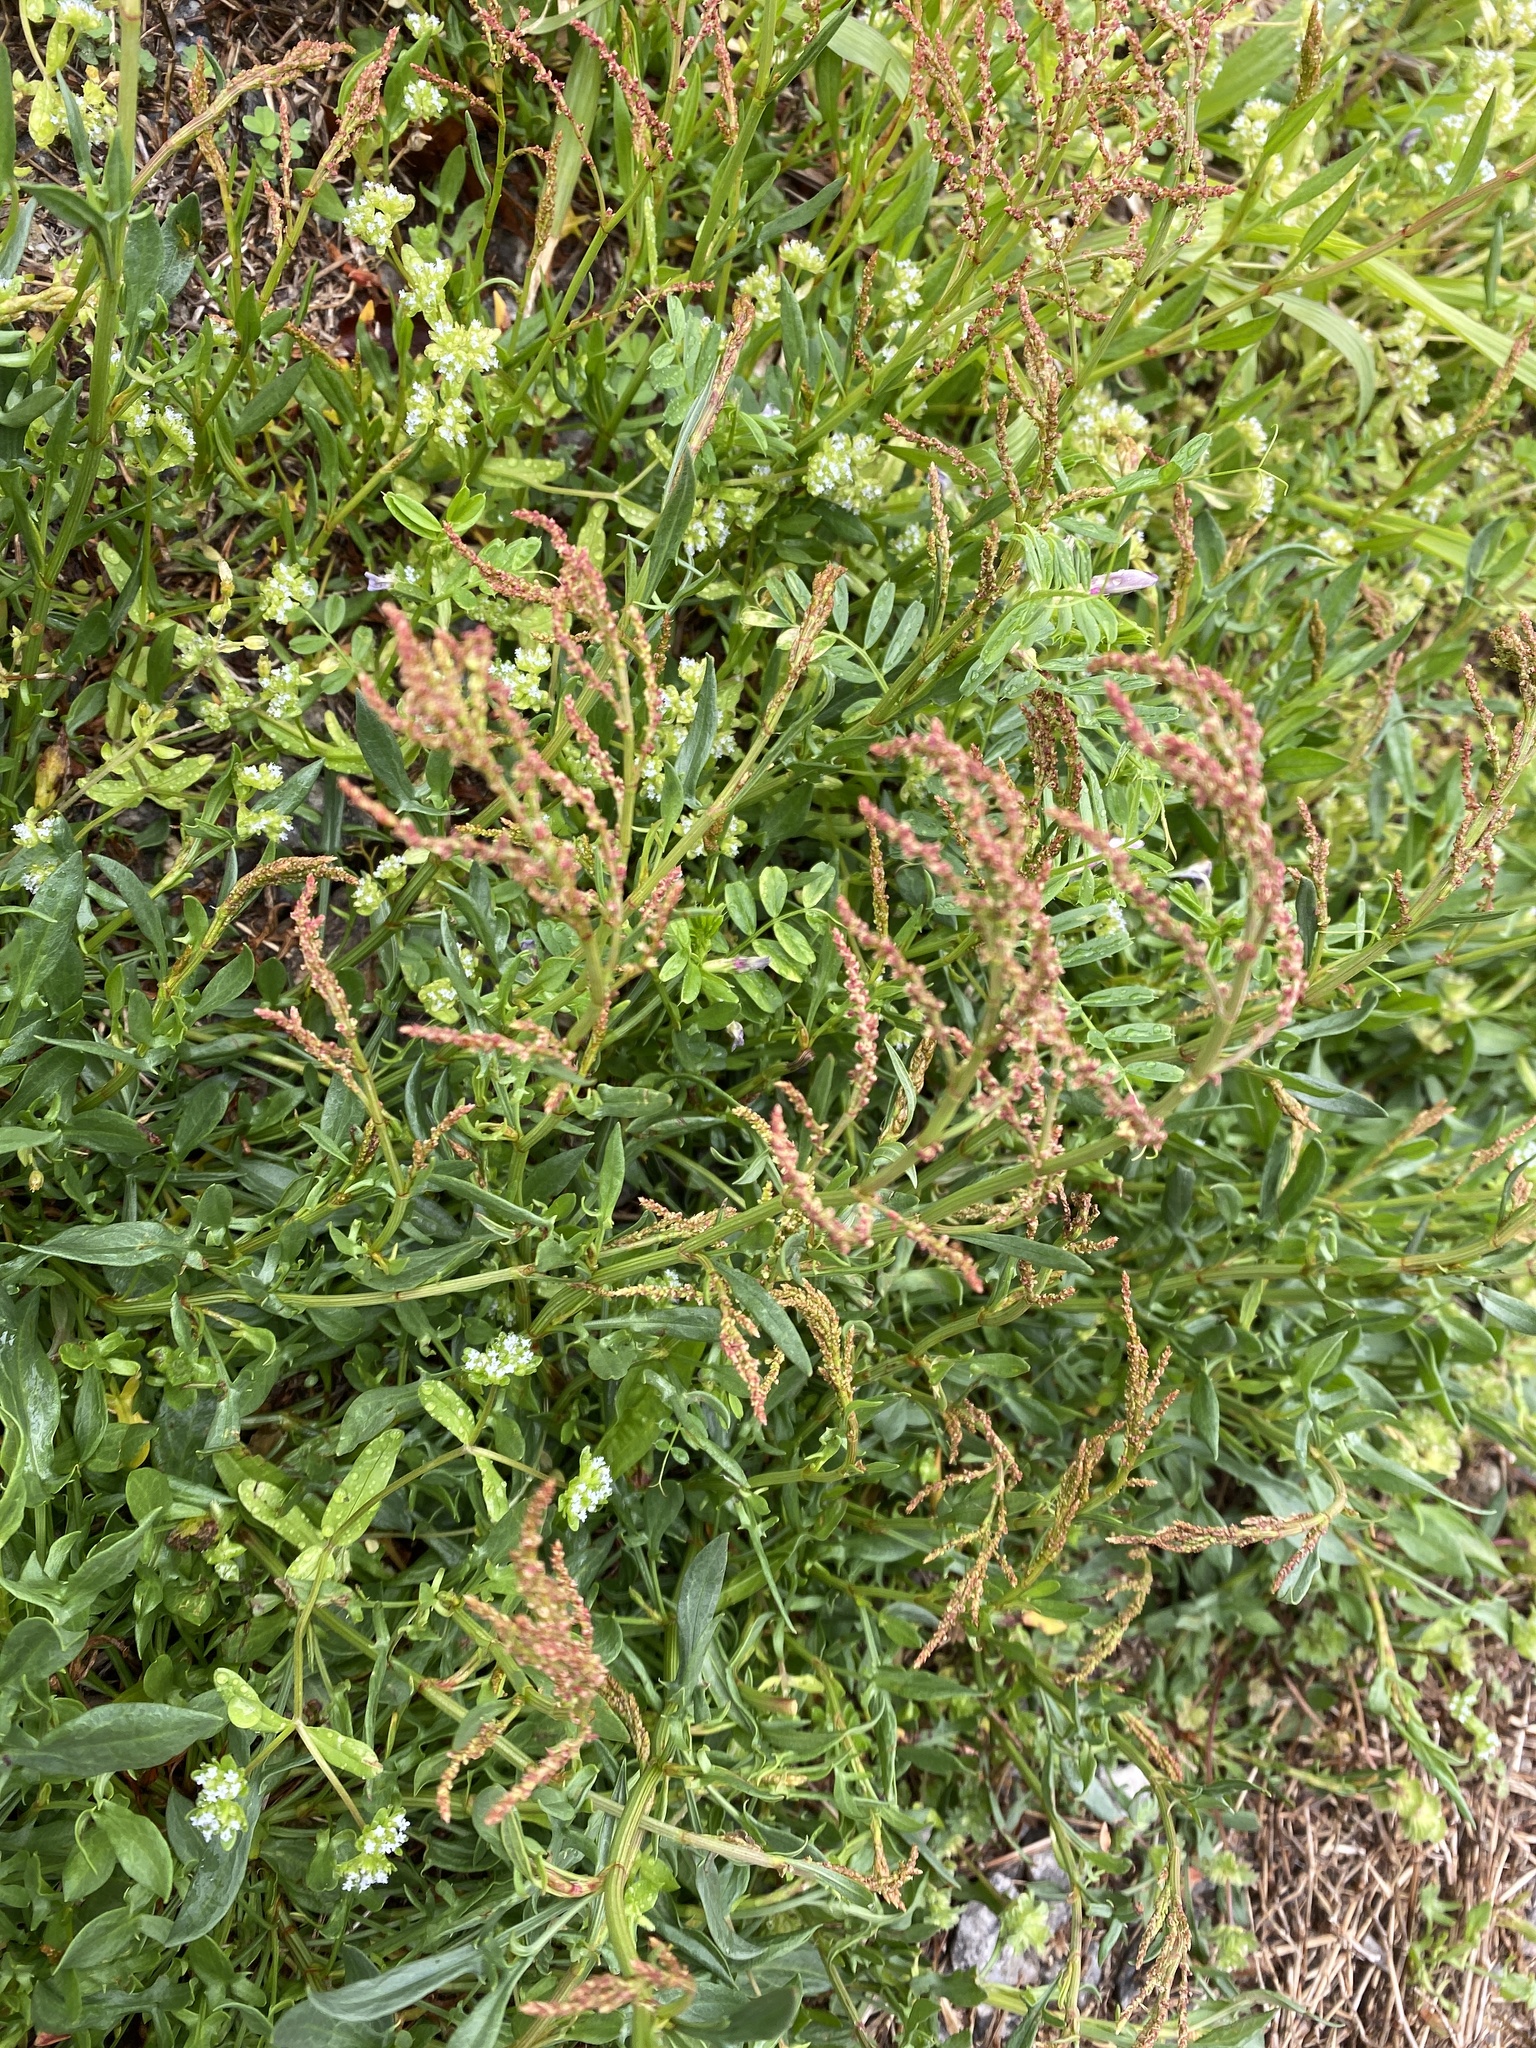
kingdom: Plantae
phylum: Tracheophyta
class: Magnoliopsida
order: Caryophyllales
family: Polygonaceae
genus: Rumex
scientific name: Rumex acetosella
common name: Common sheep sorrel
